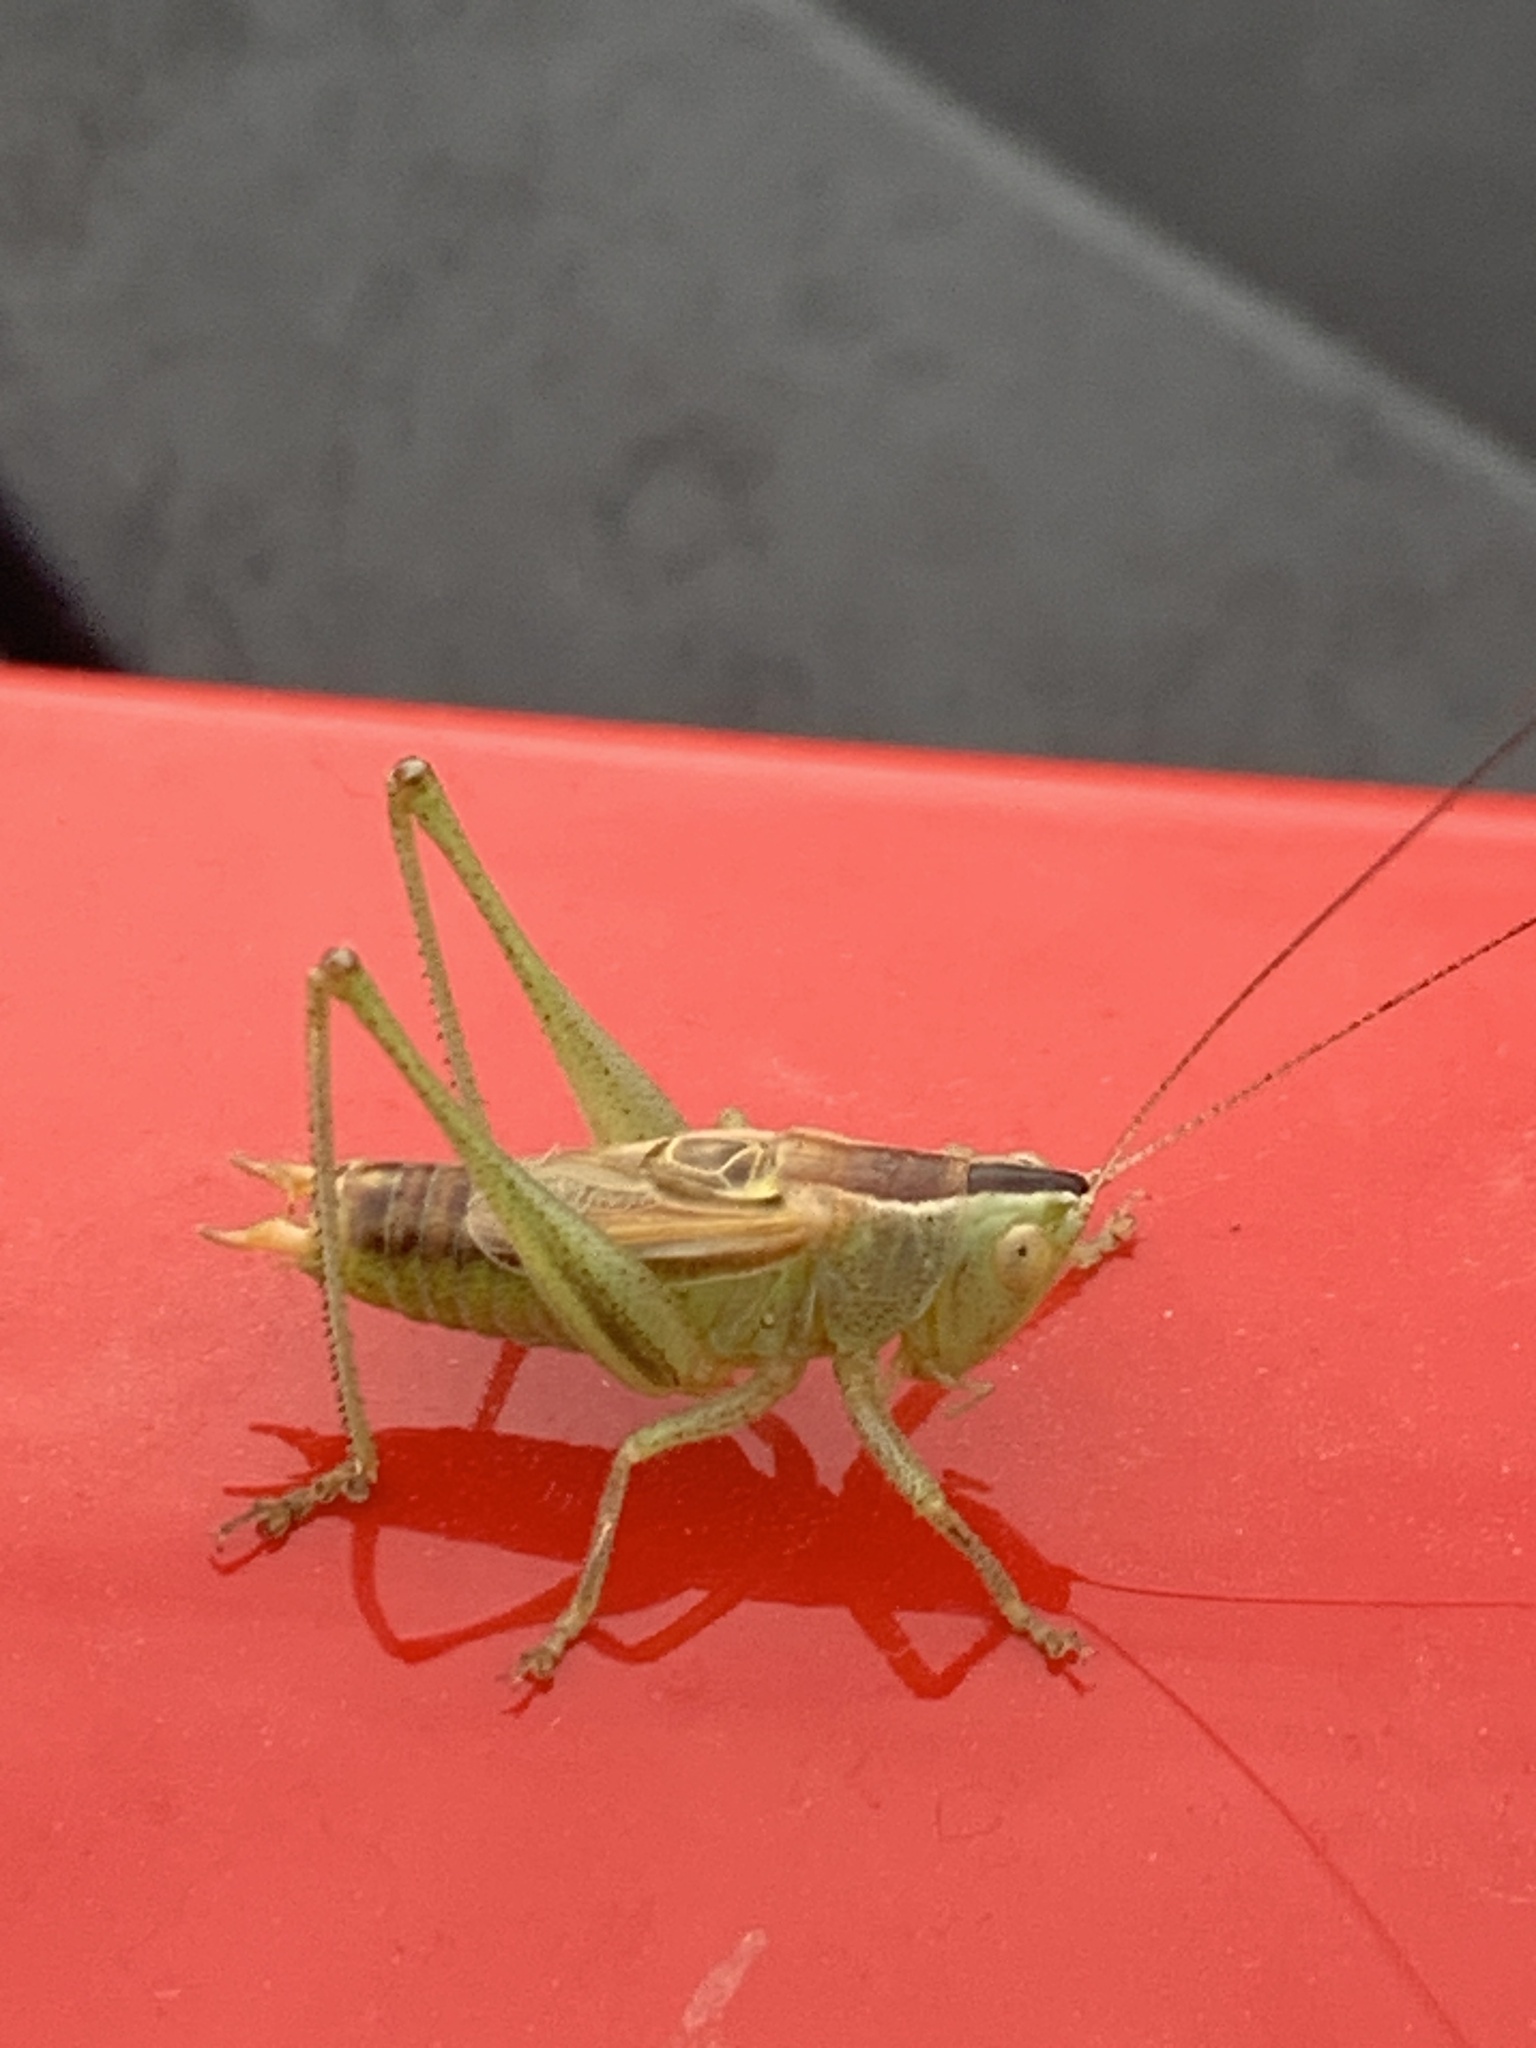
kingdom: Animalia
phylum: Arthropoda
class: Insecta
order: Orthoptera
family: Tettigoniidae
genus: Conocephalus
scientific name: Conocephalus strictus
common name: Straight-lanced katydid
